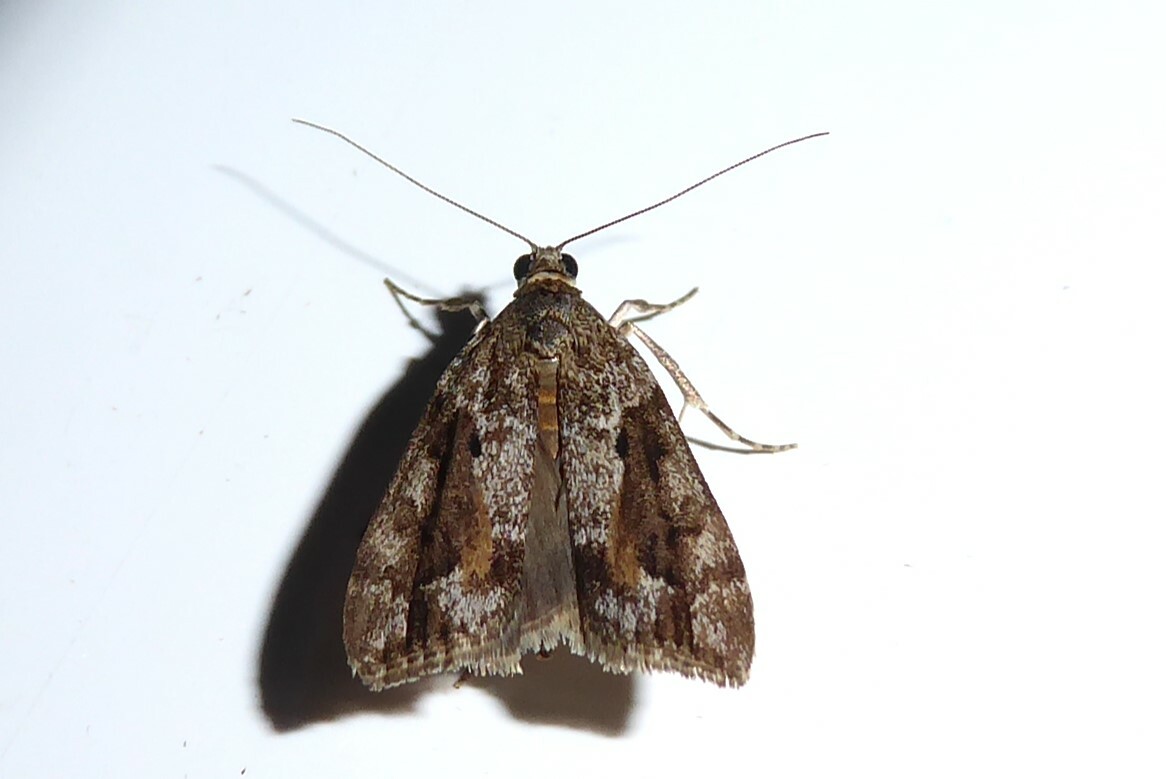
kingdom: Animalia
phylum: Arthropoda
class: Insecta
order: Lepidoptera
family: Crambidae
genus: Eudonia
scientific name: Eudonia submarginalis
